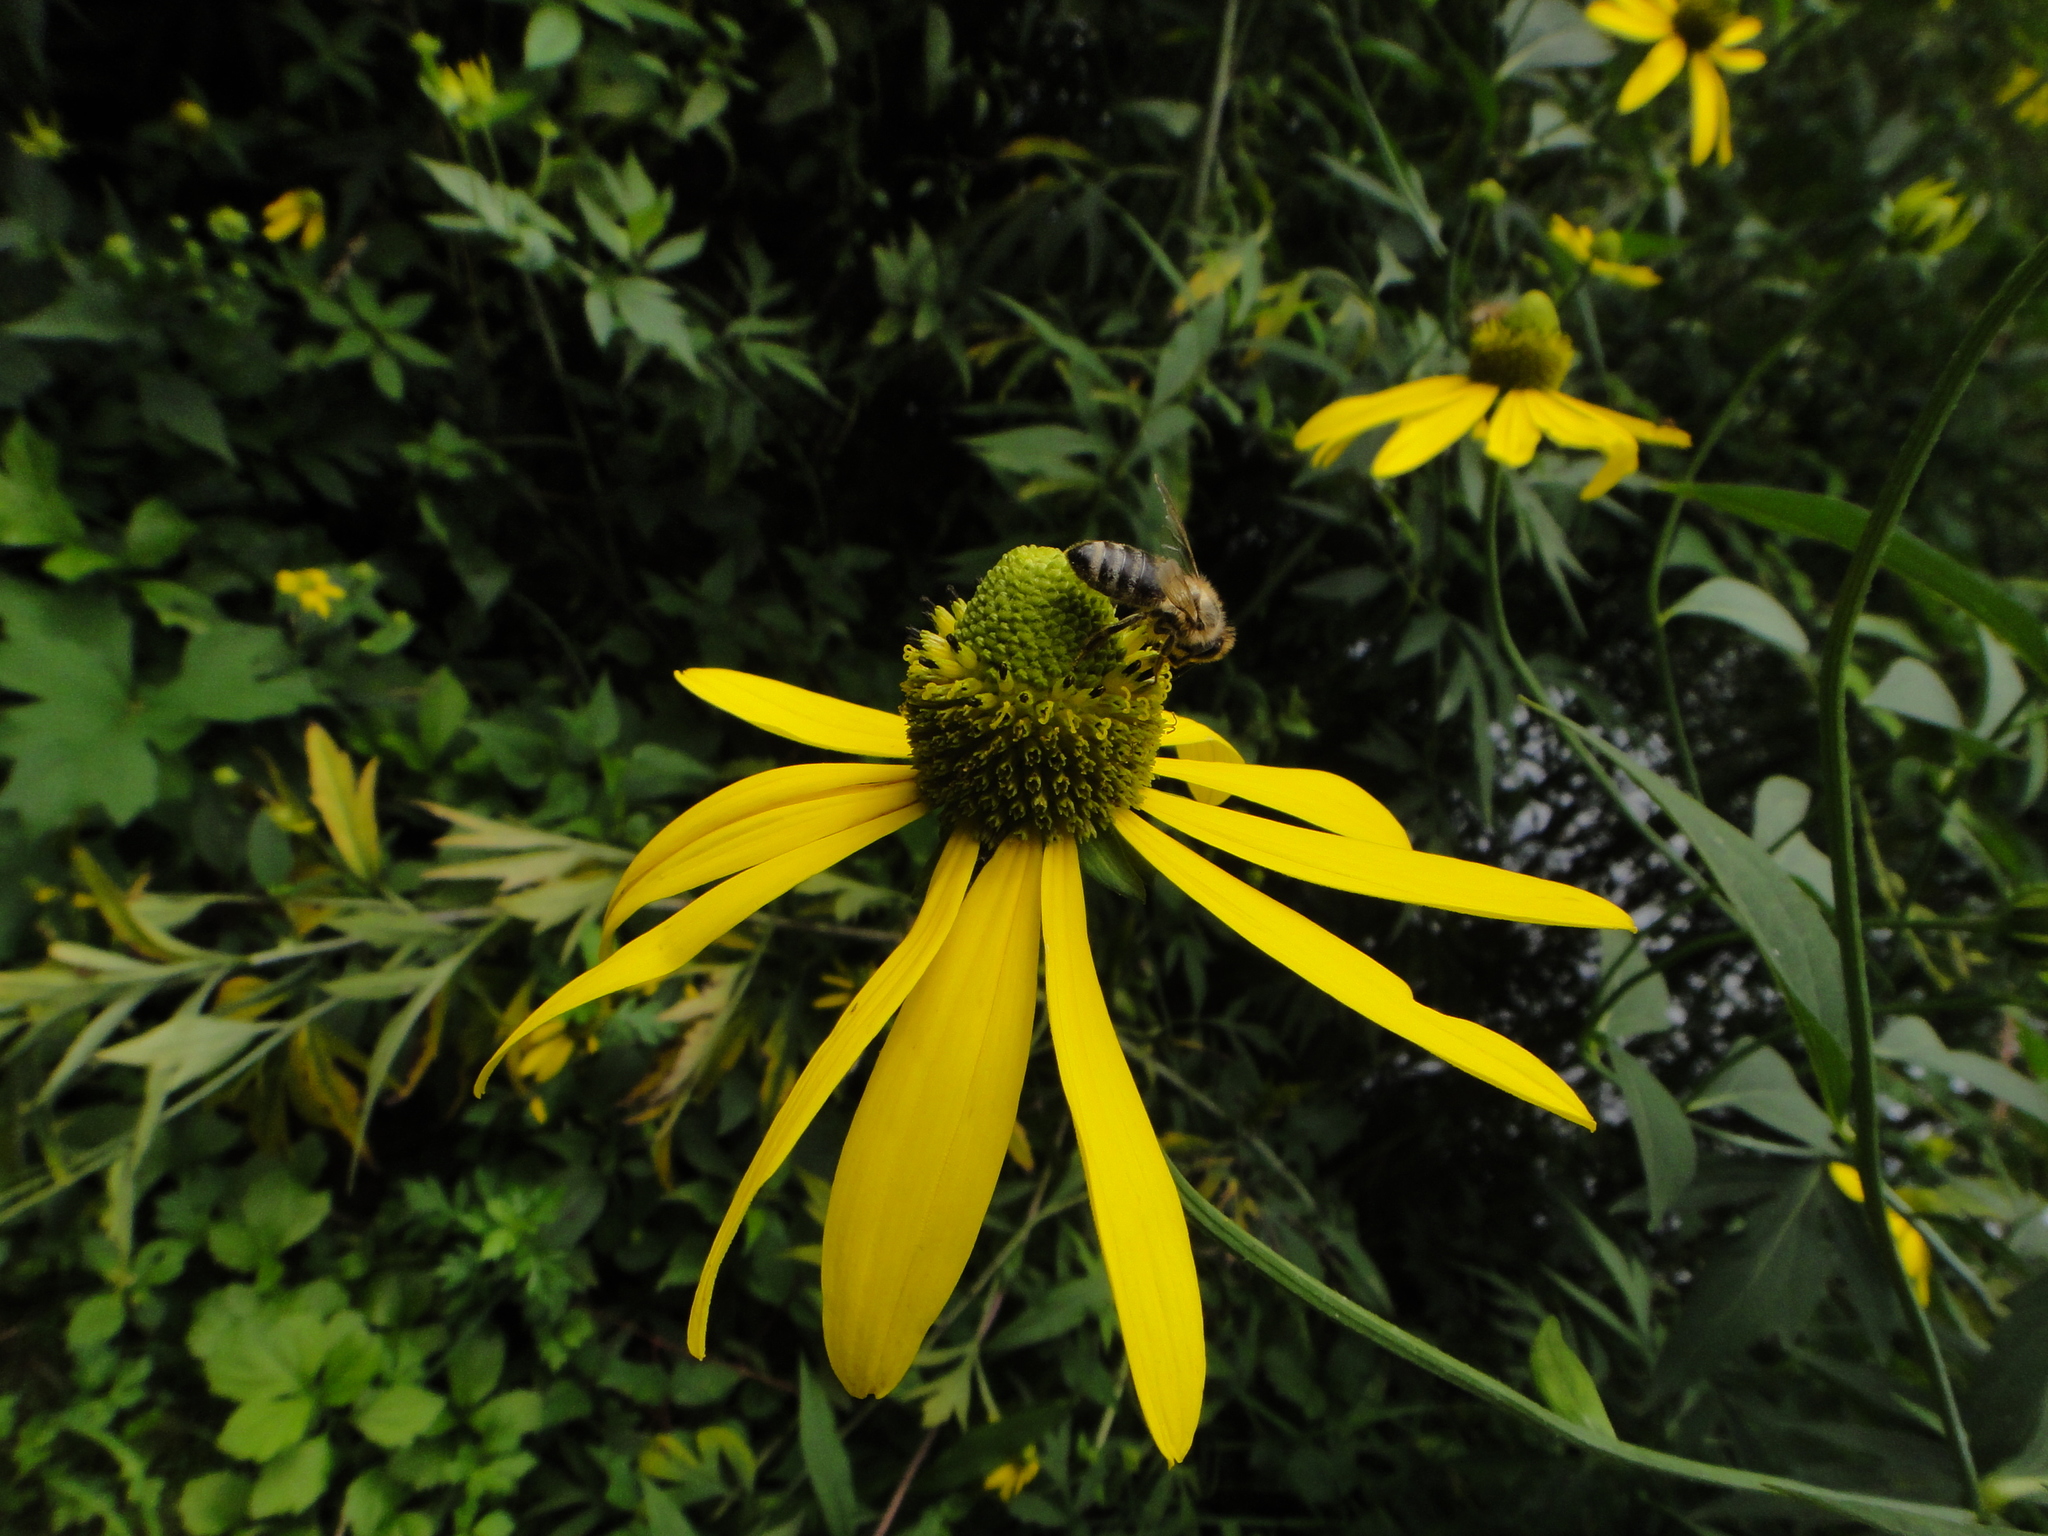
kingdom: Plantae
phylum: Tracheophyta
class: Magnoliopsida
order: Asterales
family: Asteraceae
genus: Rudbeckia
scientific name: Rudbeckia laciniata
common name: Coneflower
